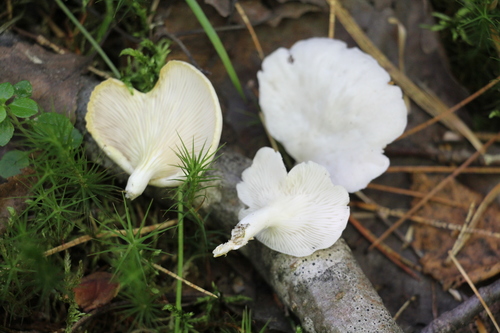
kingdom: Fungi
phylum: Basidiomycota
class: Agaricomycetes
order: Agaricales
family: Pleurotaceae
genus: Pleurotus
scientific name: Pleurotus pulmonarius
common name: Pale oyster
